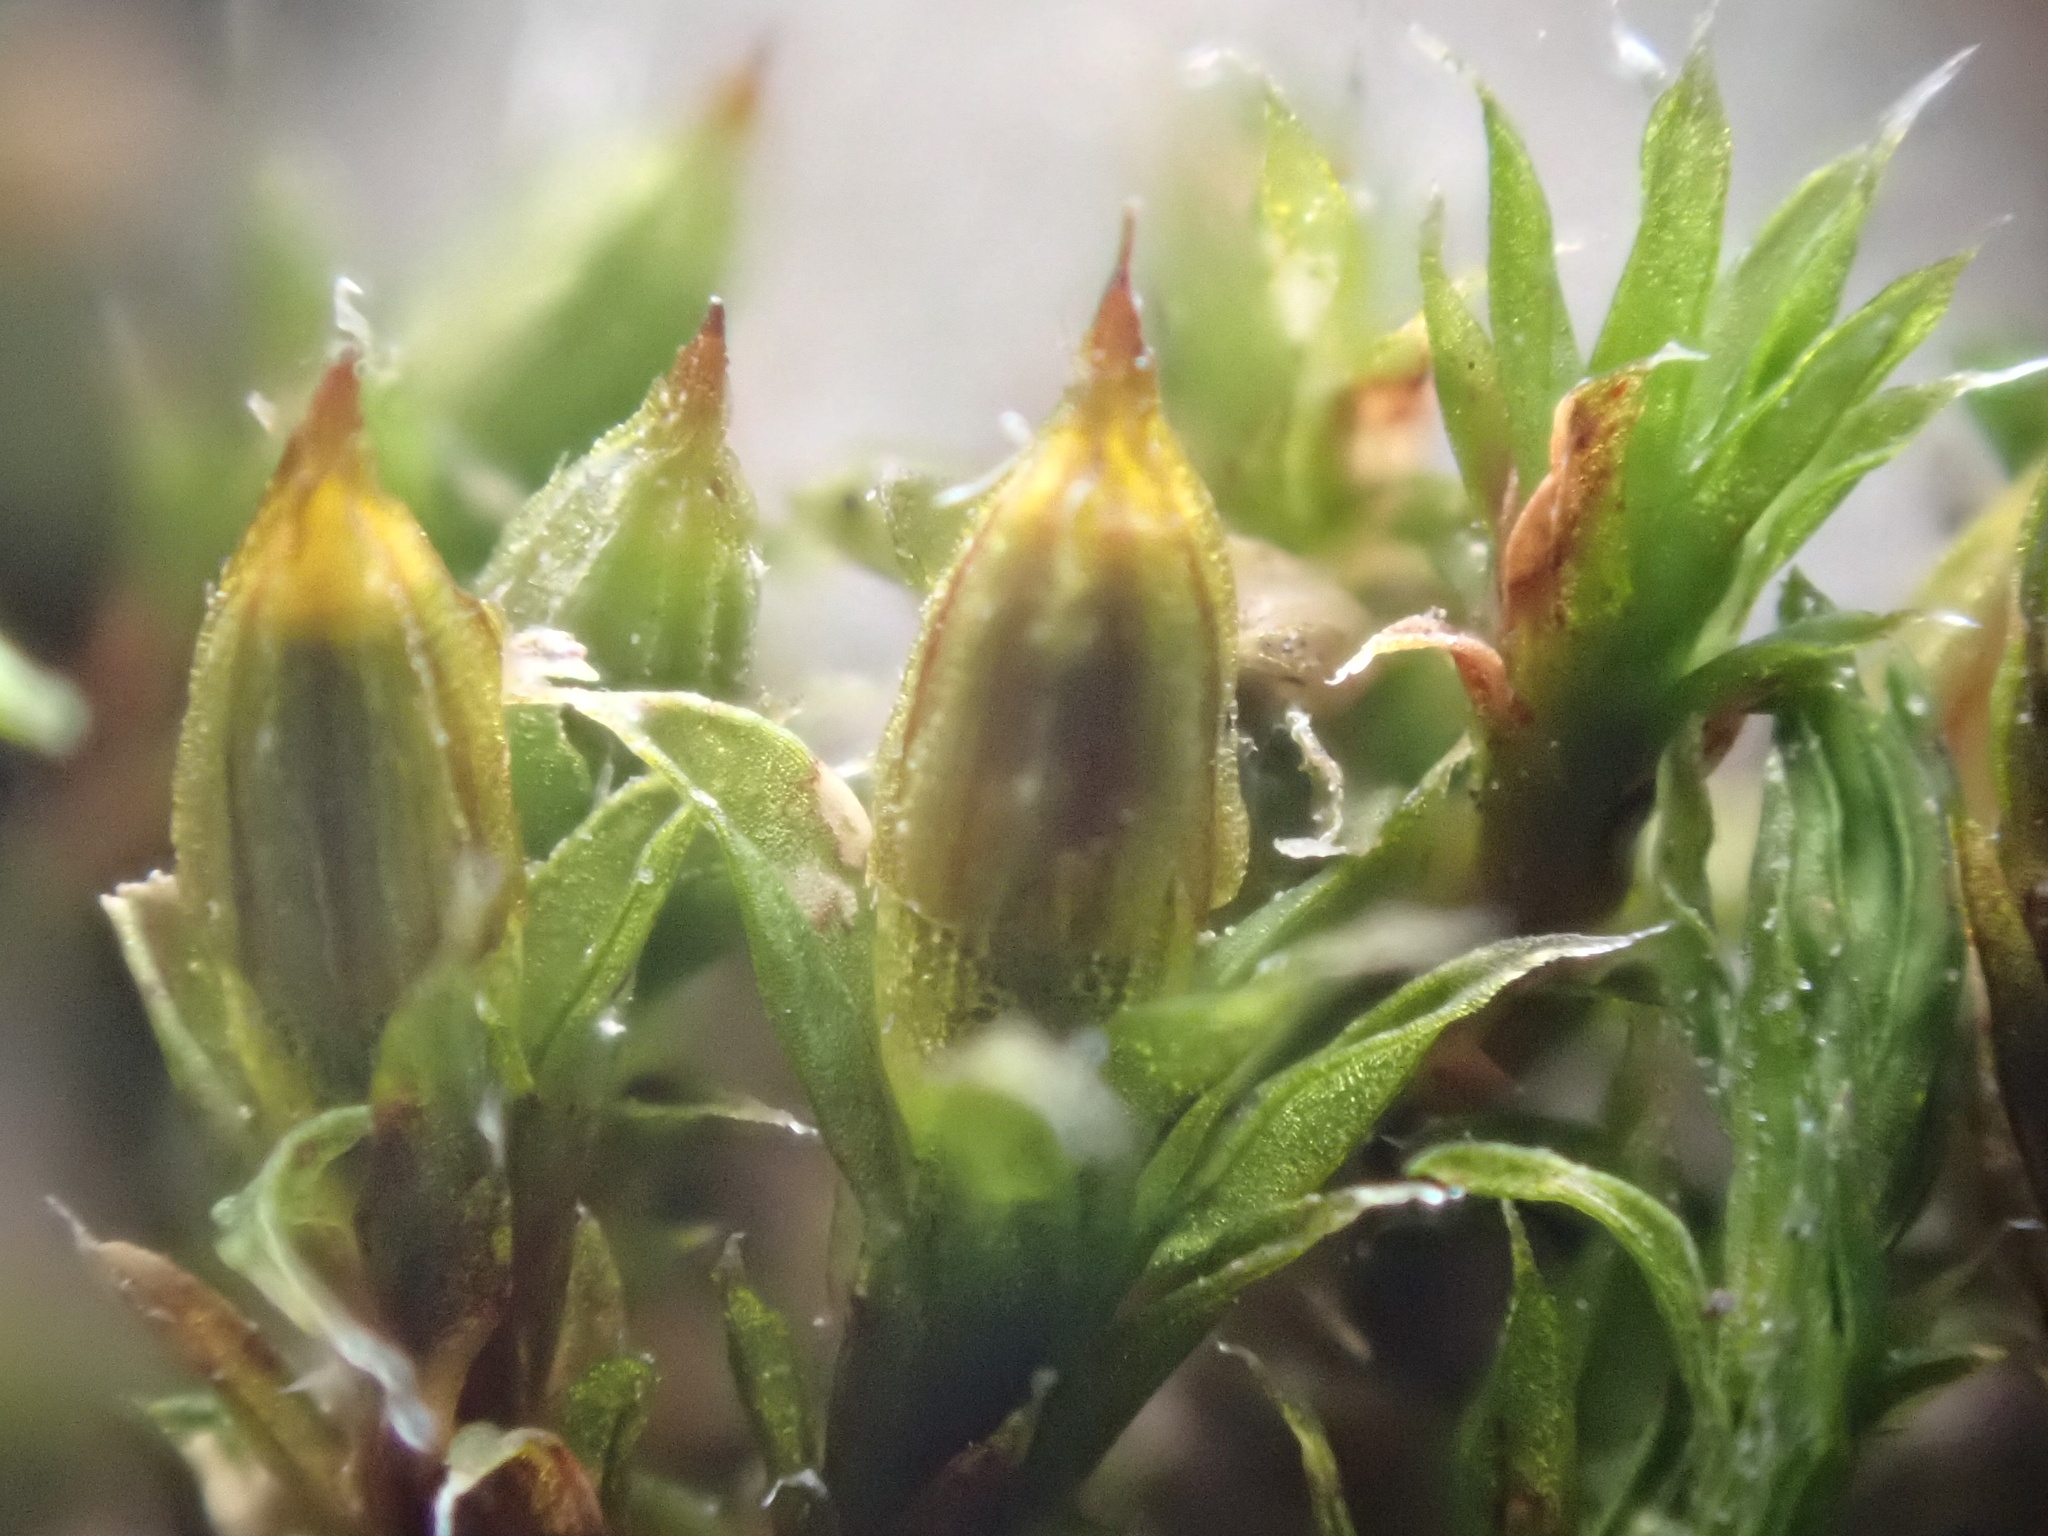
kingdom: Plantae
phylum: Bryophyta
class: Bryopsida
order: Orthotrichales
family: Orthotrichaceae
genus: Orthotrichum
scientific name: Orthotrichum diaphanum
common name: White-tipped bristle-moss
